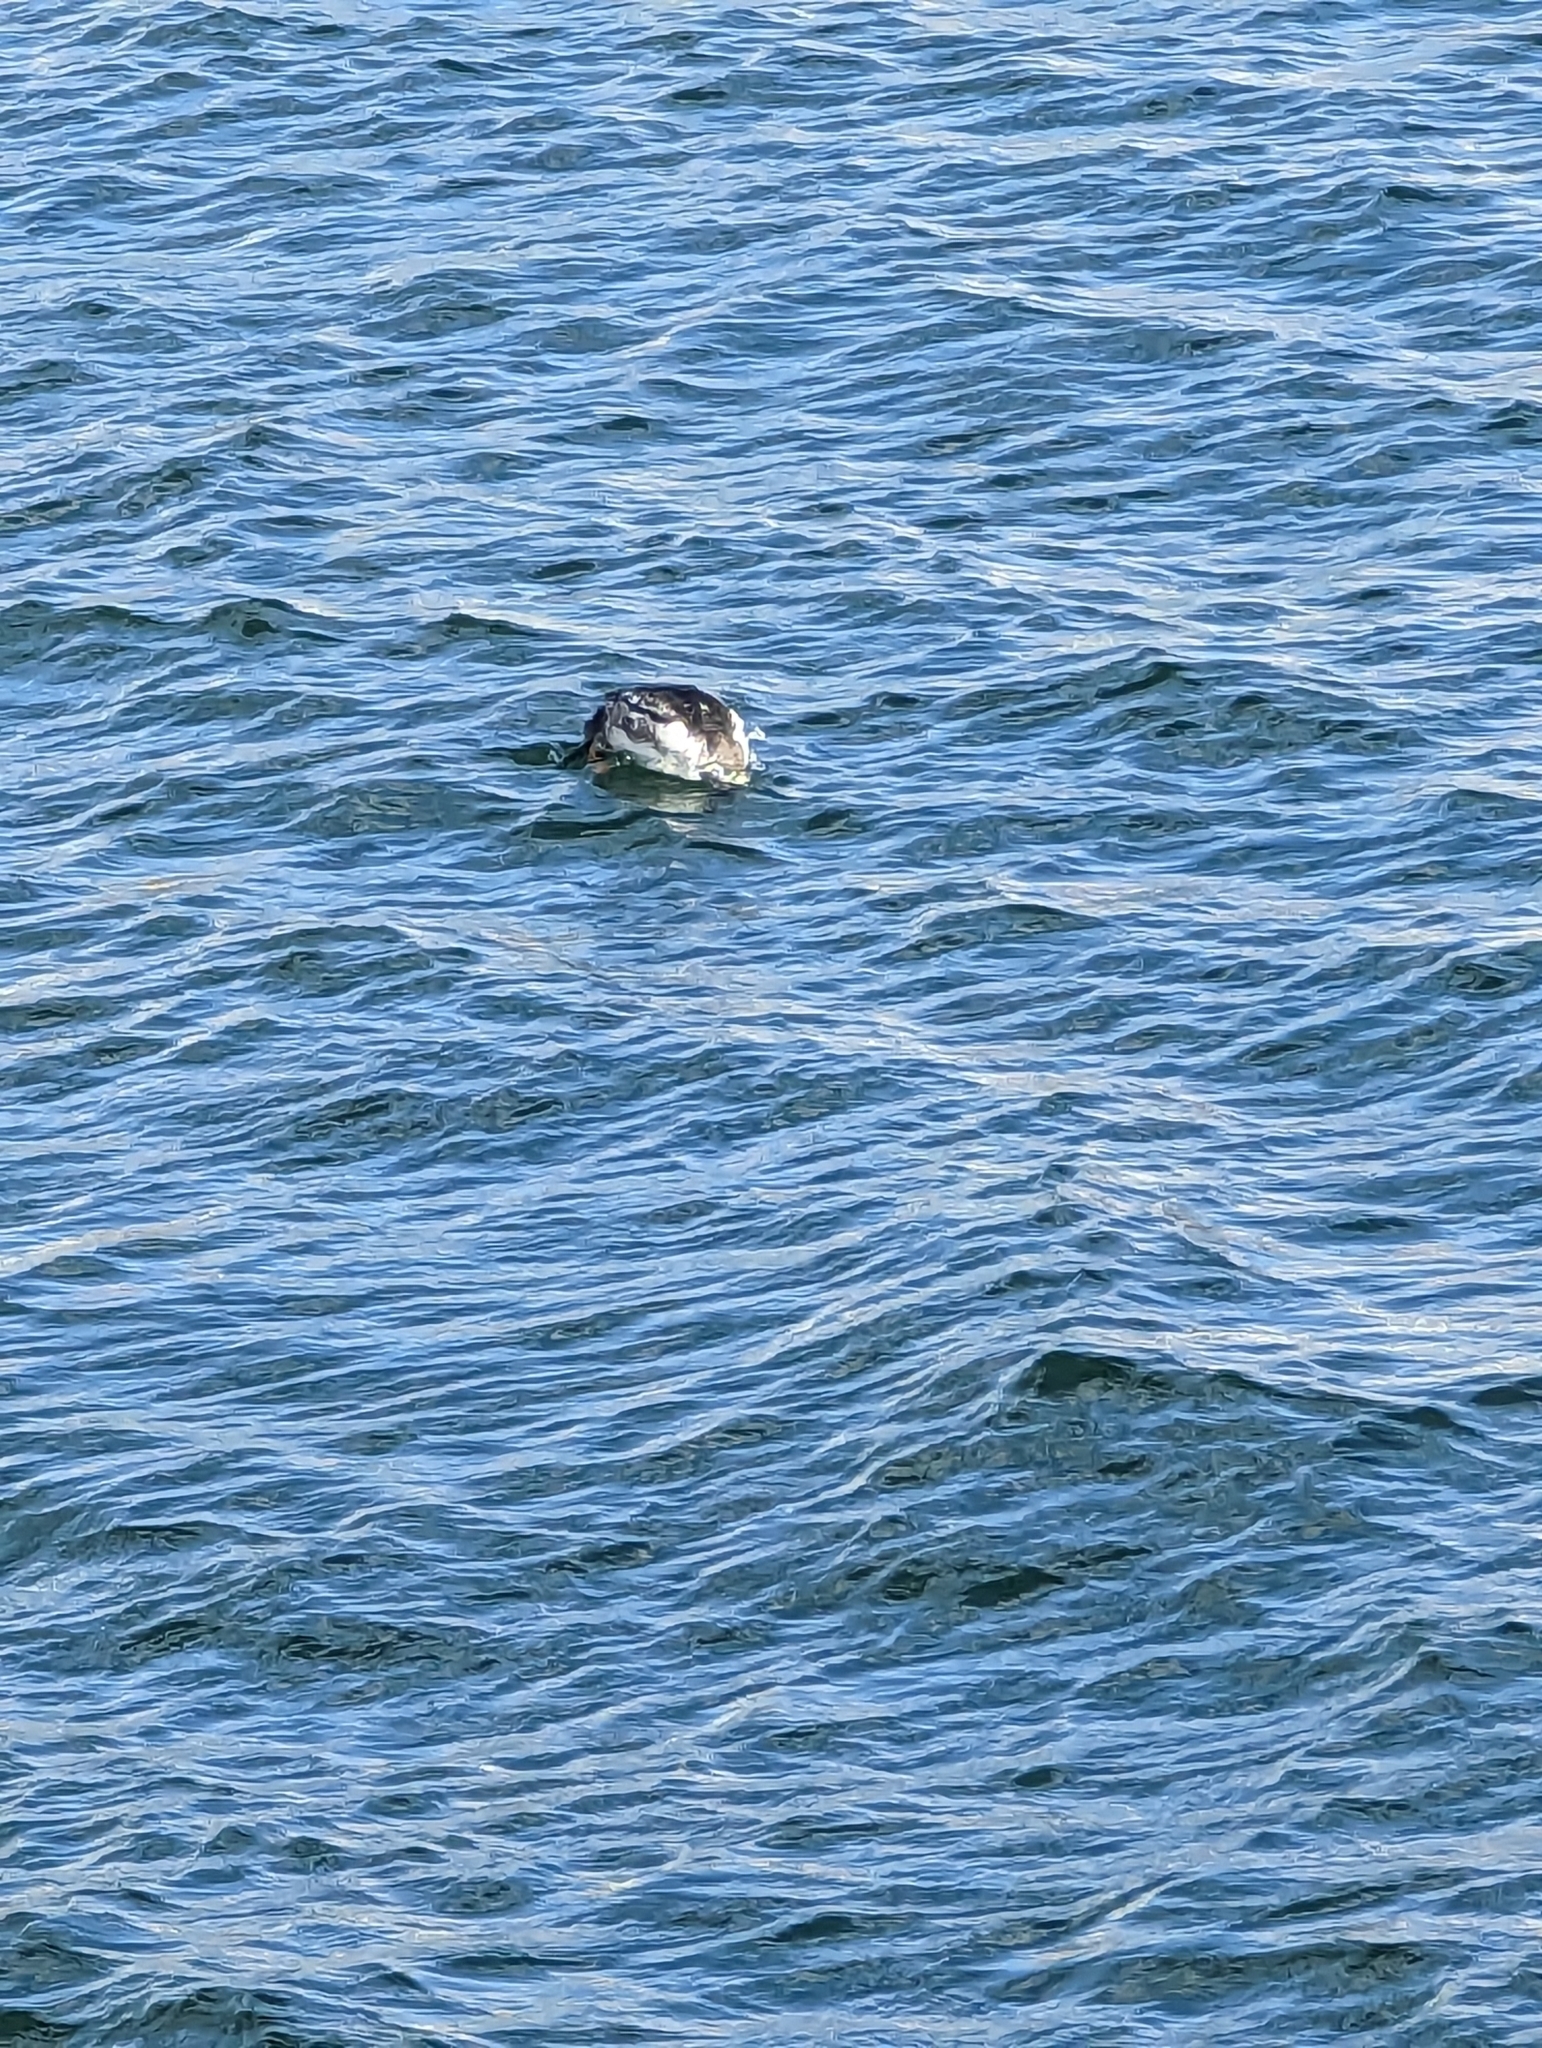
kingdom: Animalia
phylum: Chordata
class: Aves
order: Anseriformes
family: Anatidae
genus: Bucephala
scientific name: Bucephala clangula
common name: Common goldeneye
